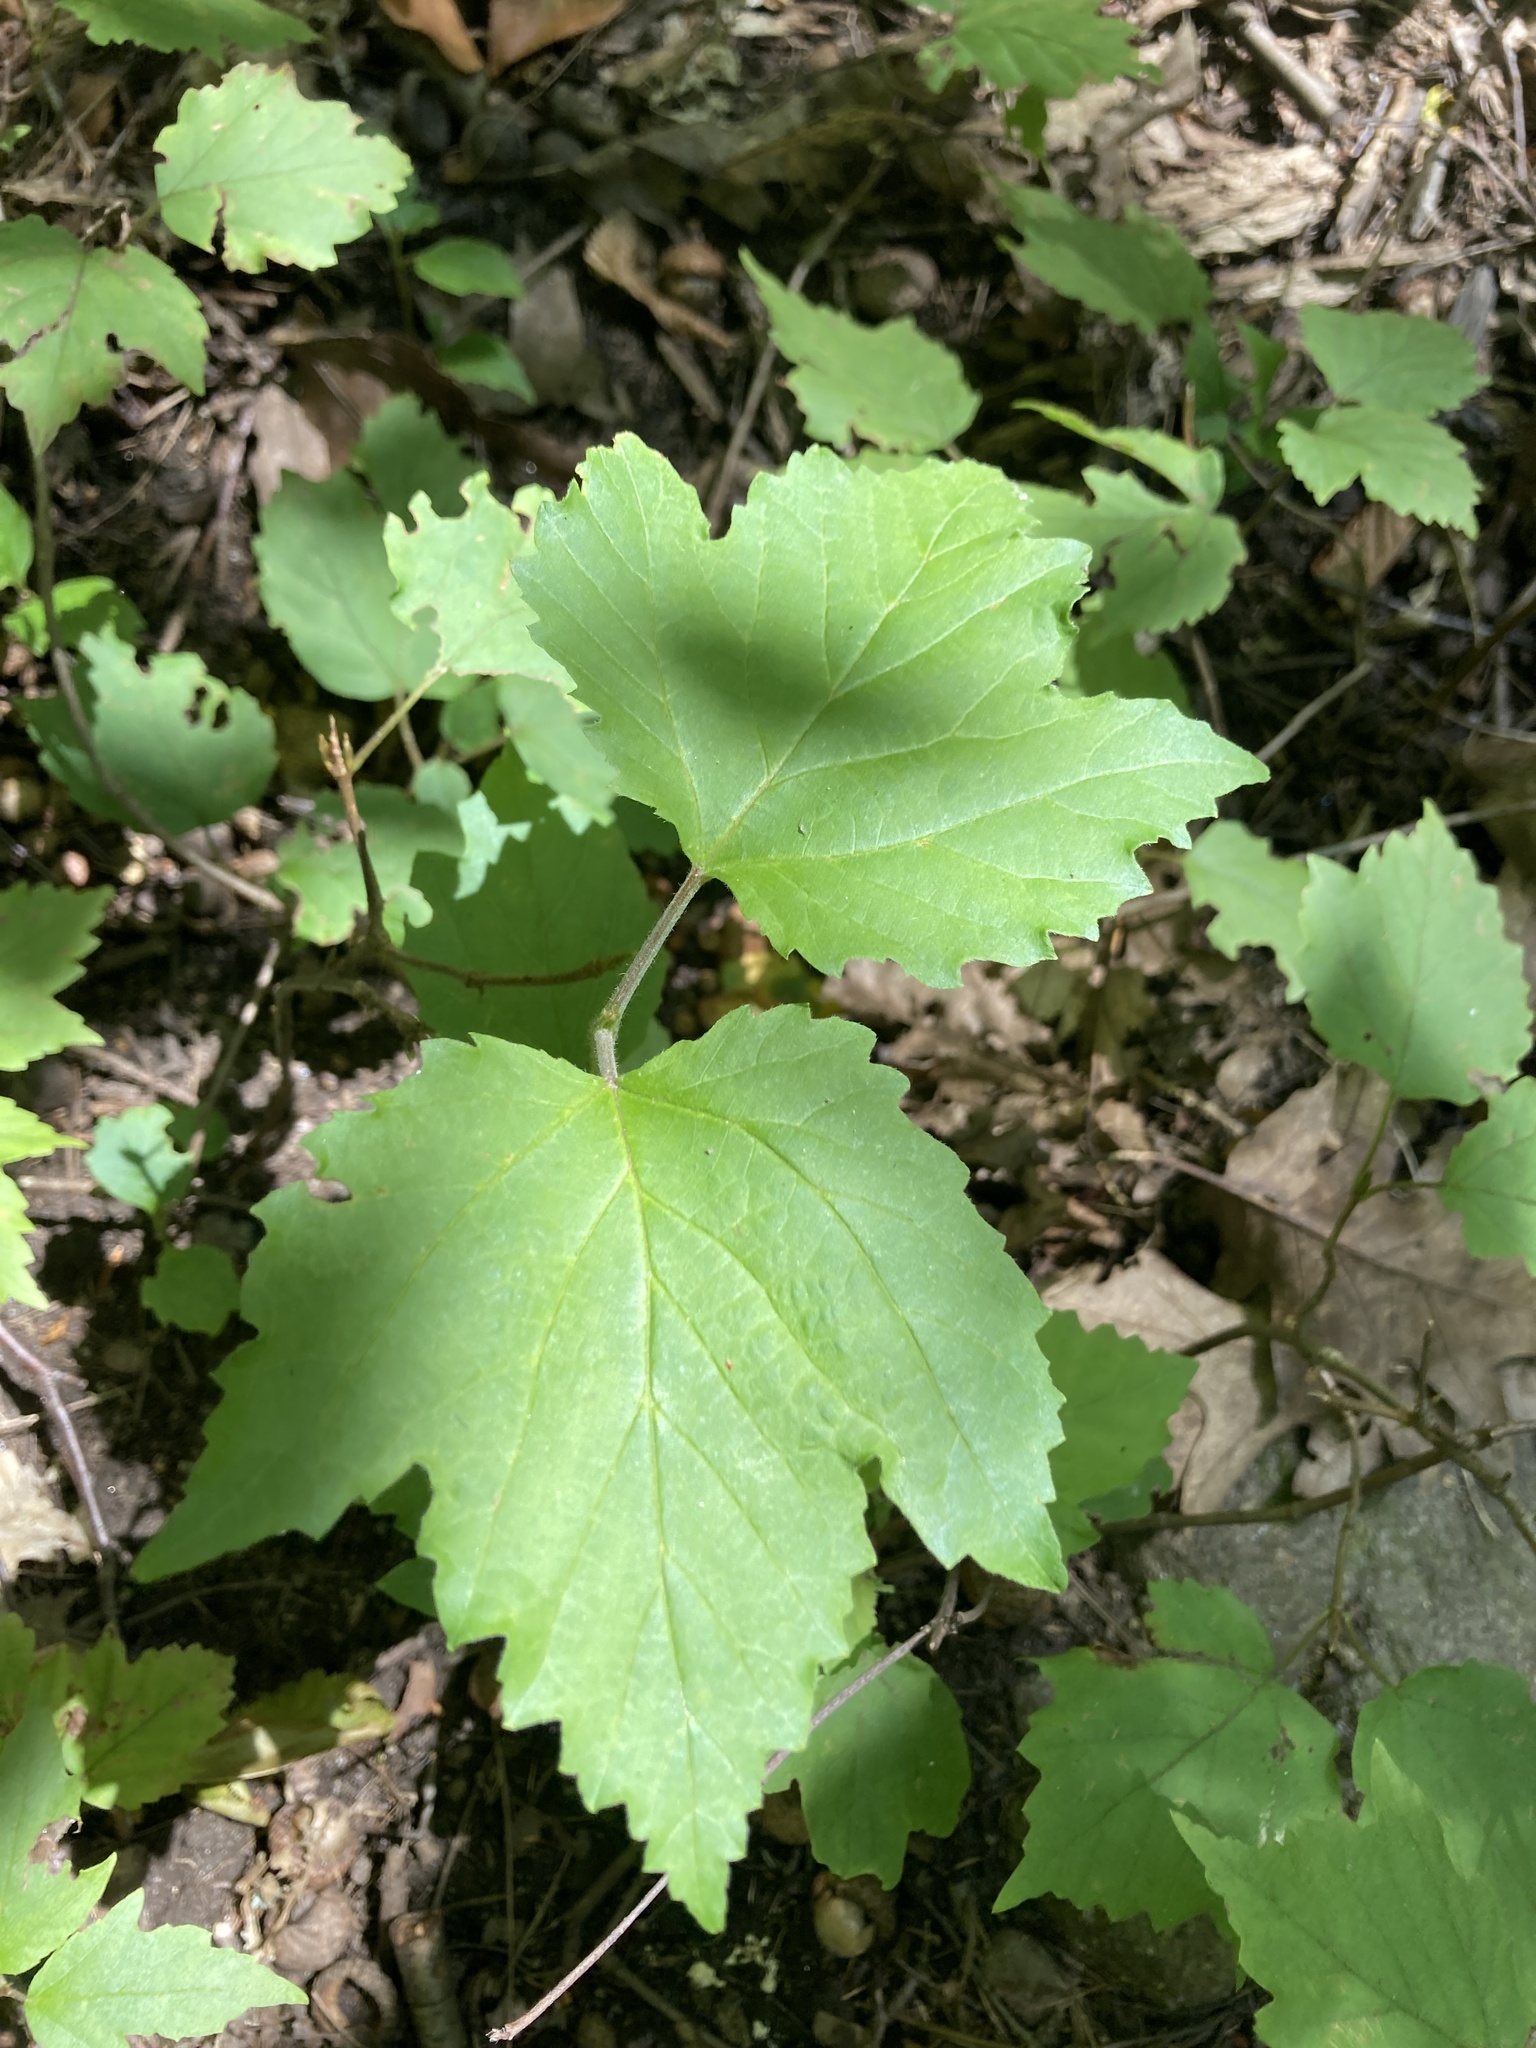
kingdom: Plantae
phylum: Tracheophyta
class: Magnoliopsida
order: Dipsacales
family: Viburnaceae
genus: Viburnum
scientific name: Viburnum acerifolium
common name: Dockmackie
